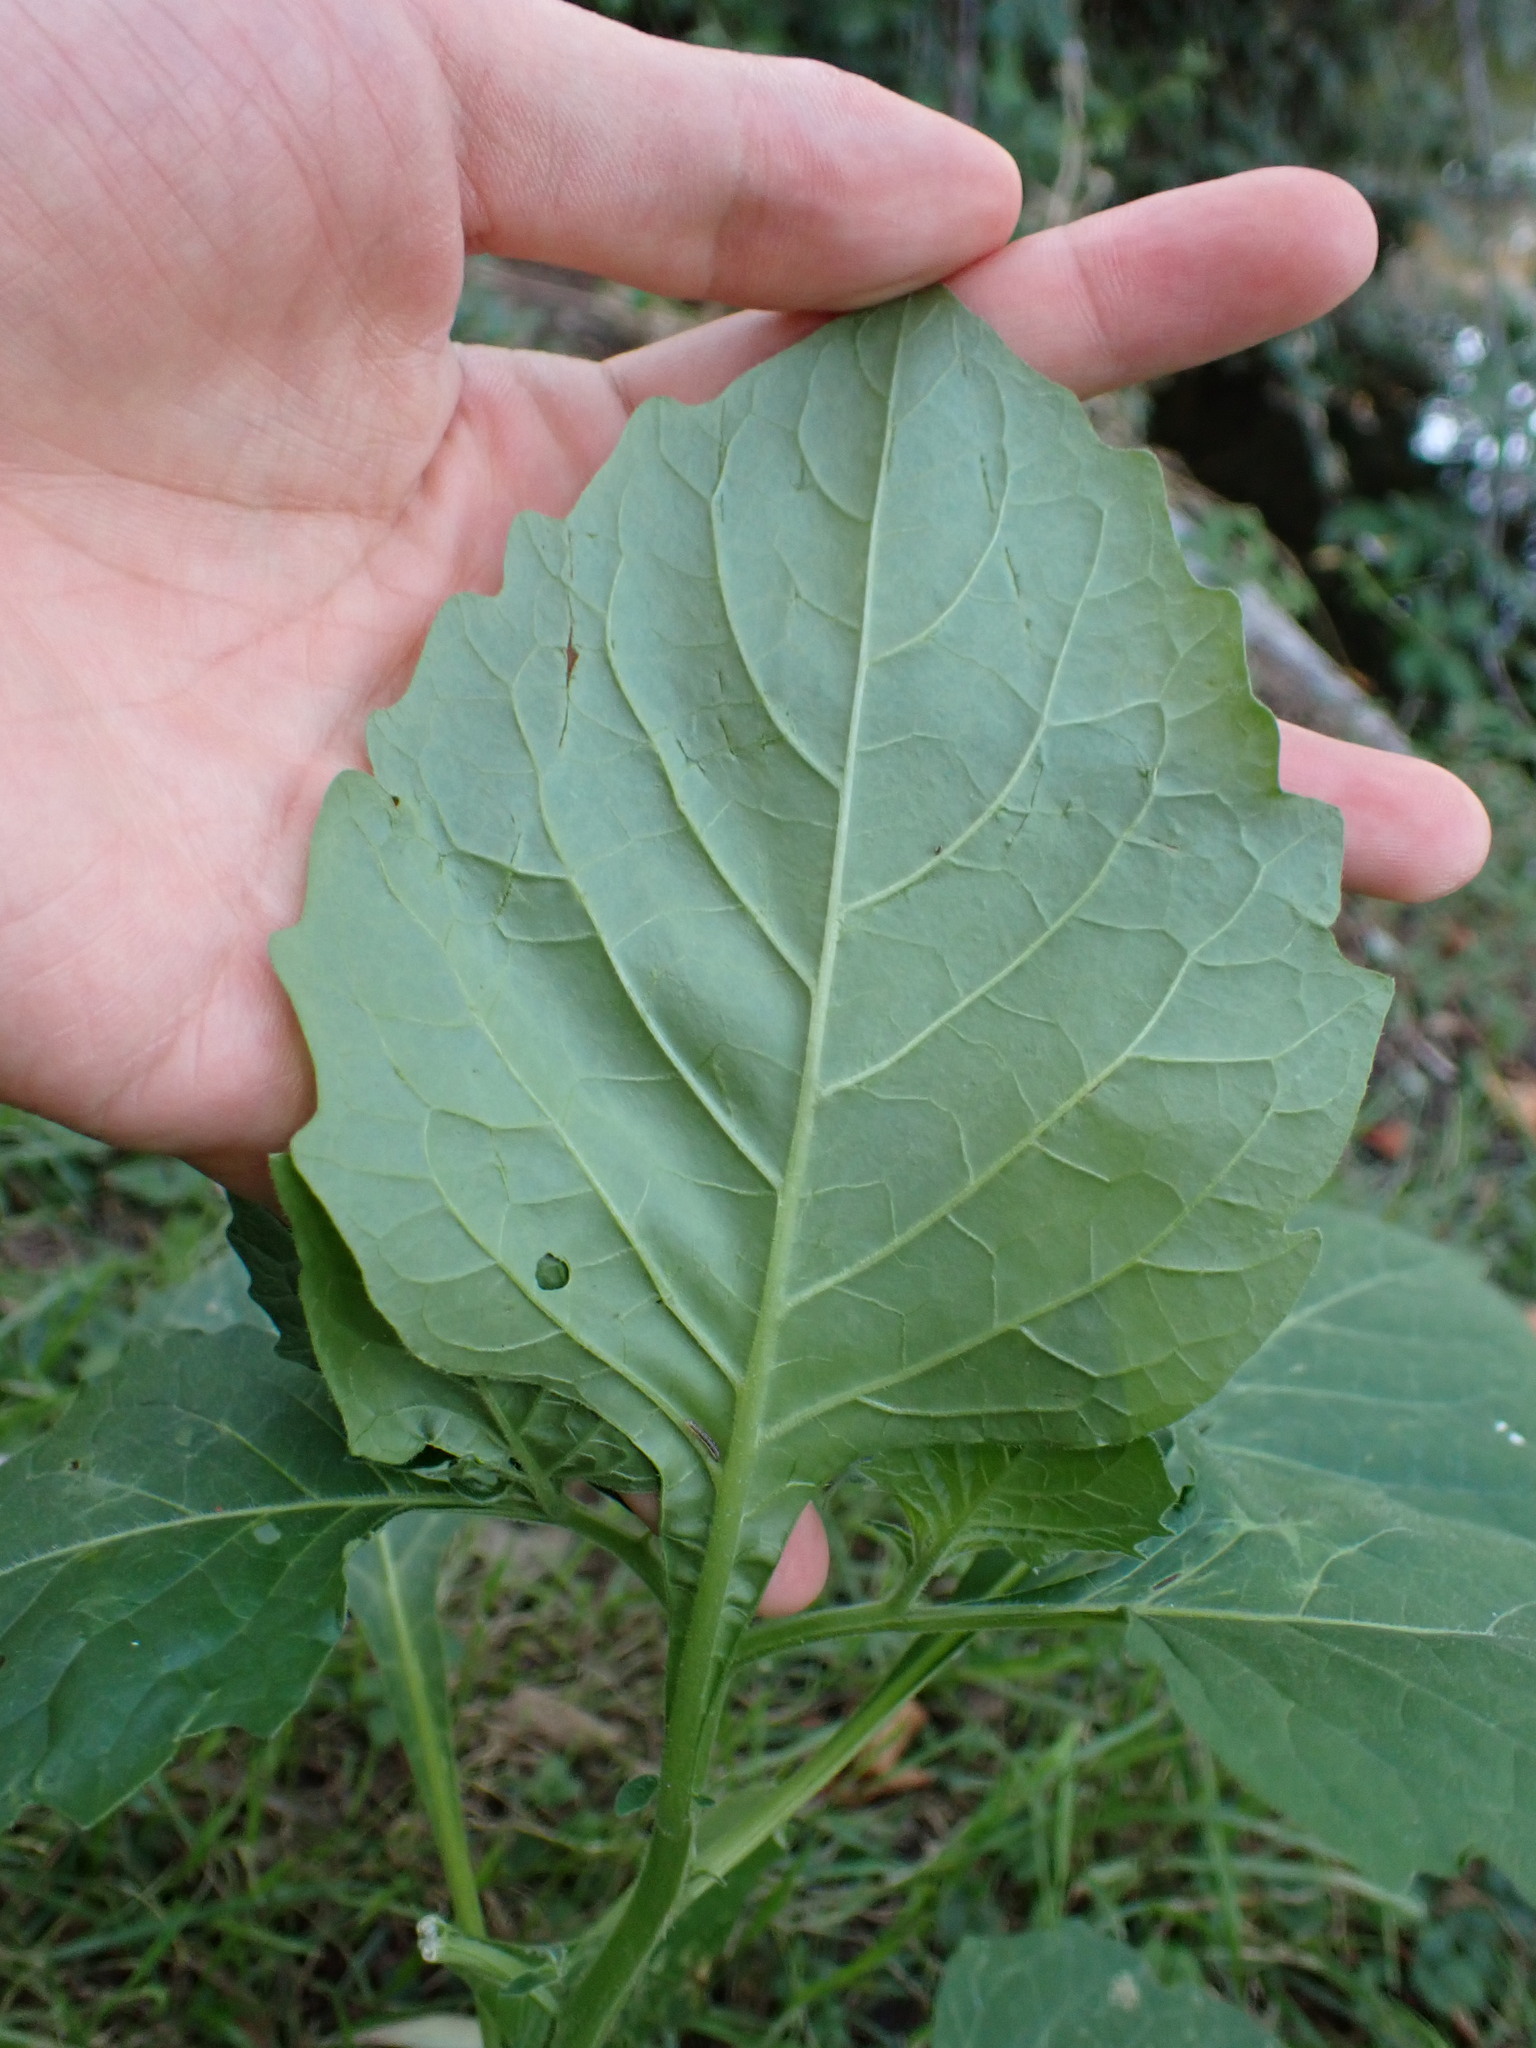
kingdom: Plantae
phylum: Tracheophyta
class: Magnoliopsida
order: Solanales
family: Solanaceae
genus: Solanum
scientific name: Solanum
